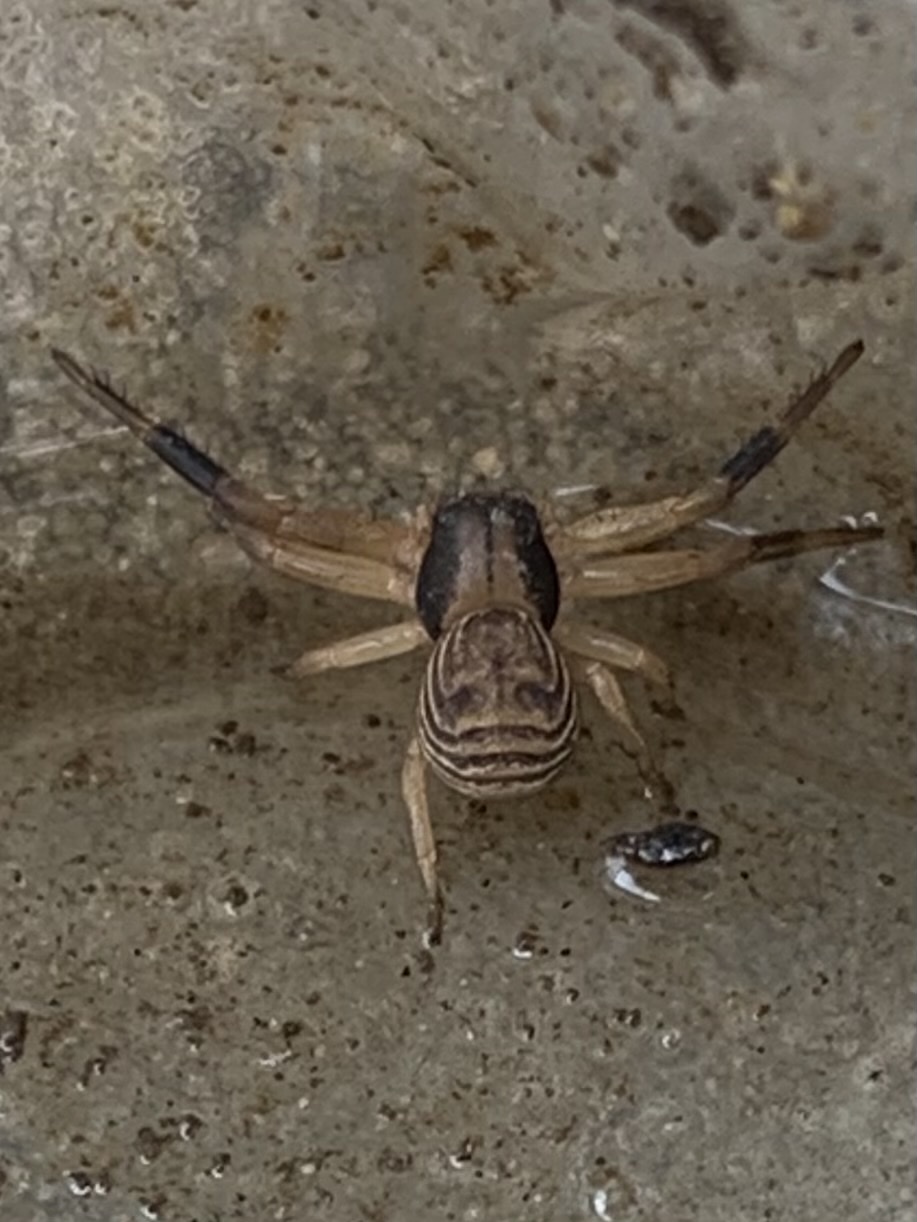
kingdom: Animalia
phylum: Arthropoda
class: Arachnida
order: Araneae
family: Thomisidae
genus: Xysticus
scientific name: Xysticus texanus
